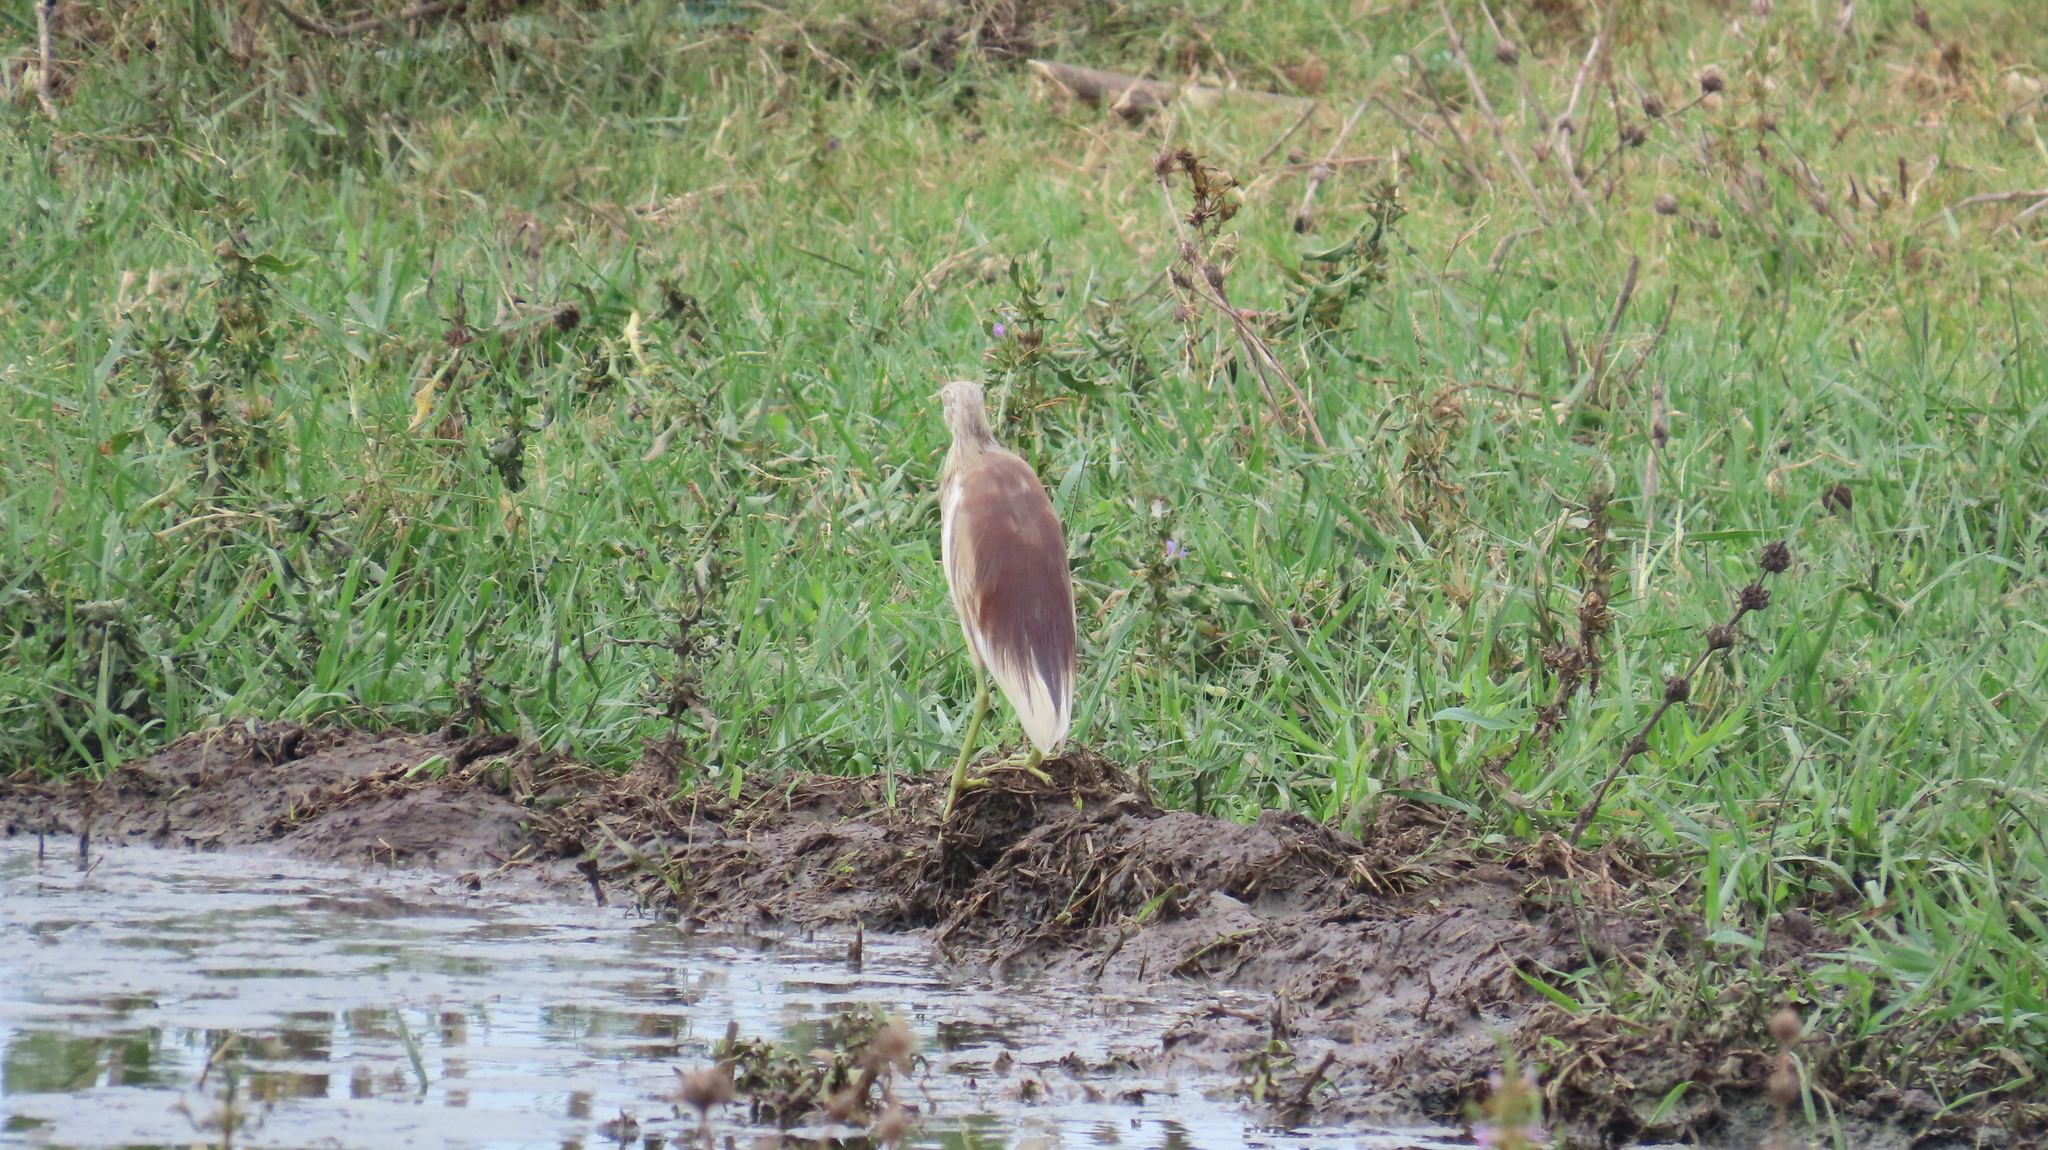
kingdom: Animalia
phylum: Chordata
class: Aves
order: Pelecaniformes
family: Ardeidae
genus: Ardeola
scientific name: Ardeola grayii
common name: Indian pond heron
